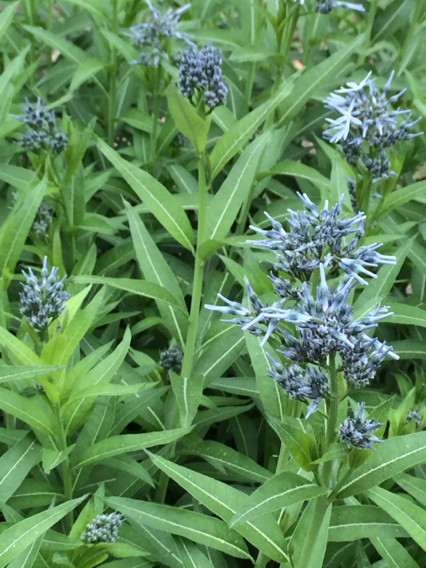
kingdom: Plantae
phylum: Tracheophyta
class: Magnoliopsida
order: Gentianales
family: Apocynaceae
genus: Amsonia
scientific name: Amsonia tabernaemontana
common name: Texas-star
